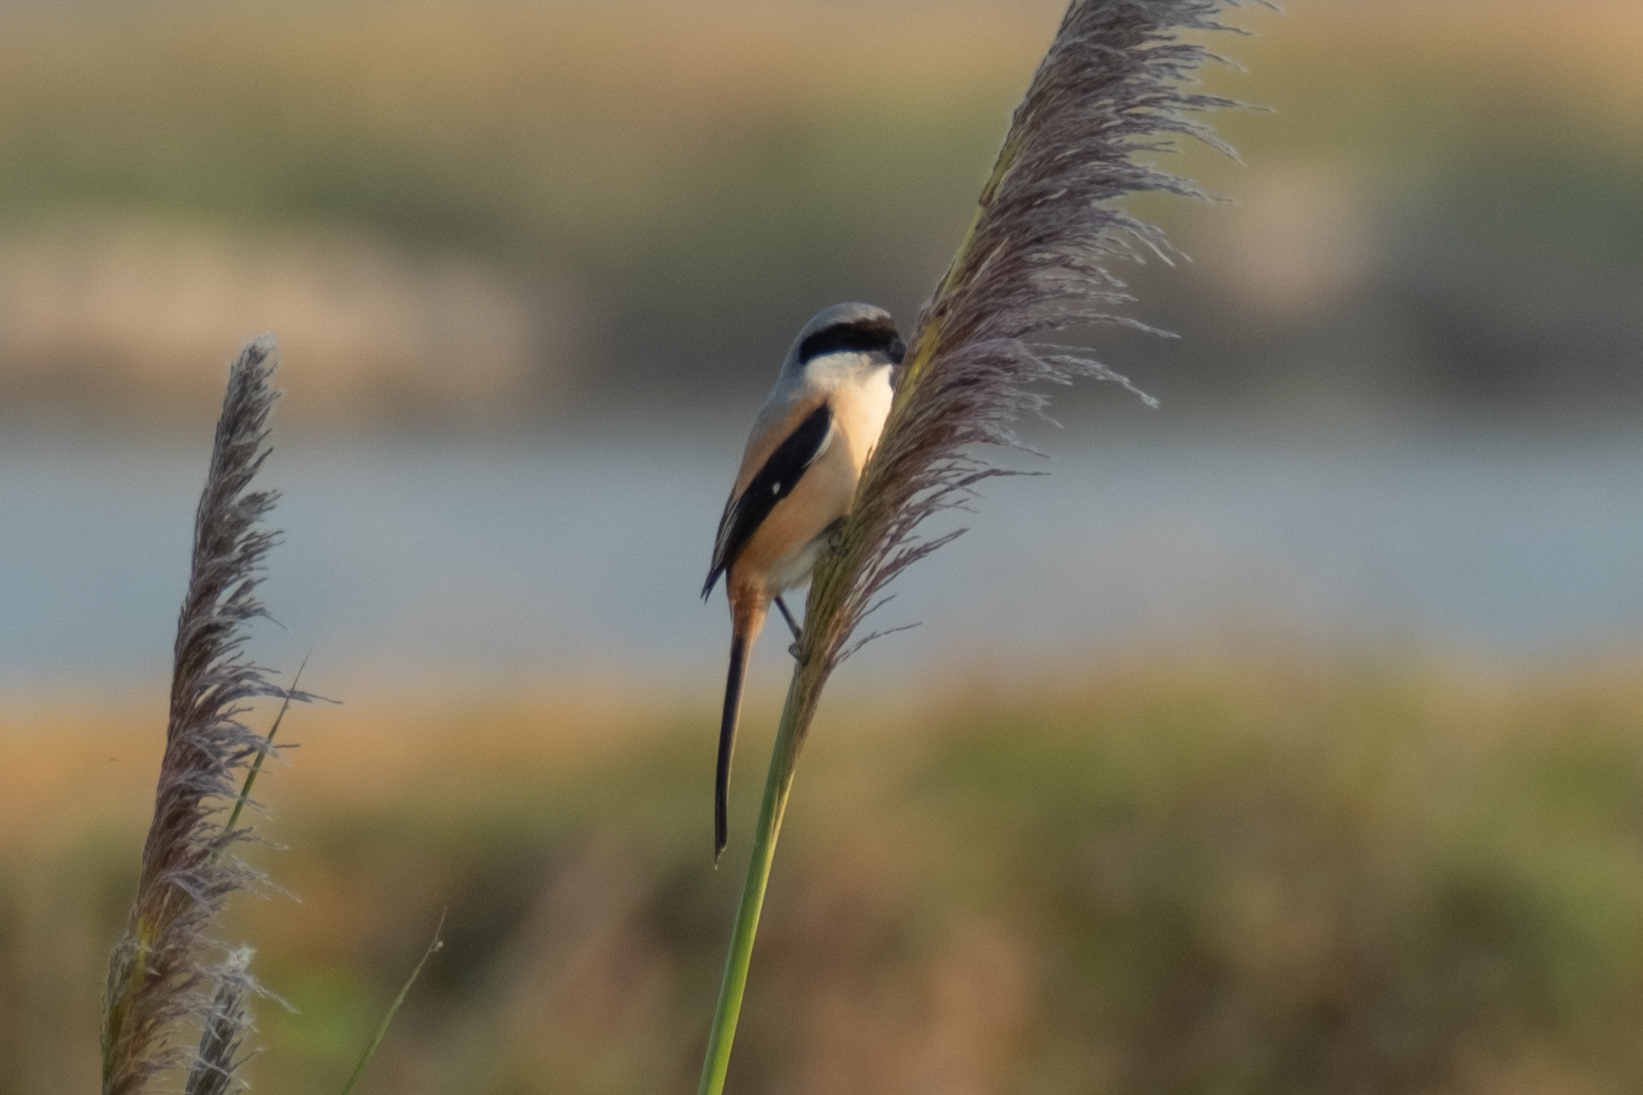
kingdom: Animalia
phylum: Chordata
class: Aves
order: Passeriformes
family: Laniidae
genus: Lanius
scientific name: Lanius schach
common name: Long-tailed shrike
